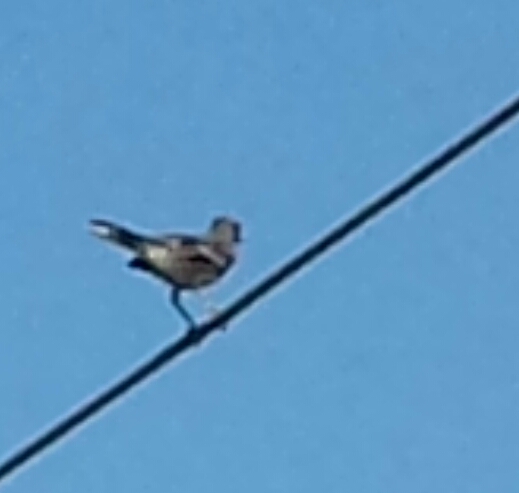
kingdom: Animalia
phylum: Chordata
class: Aves
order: Passeriformes
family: Mimidae
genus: Mimus
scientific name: Mimus polyglottos
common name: Northern mockingbird
